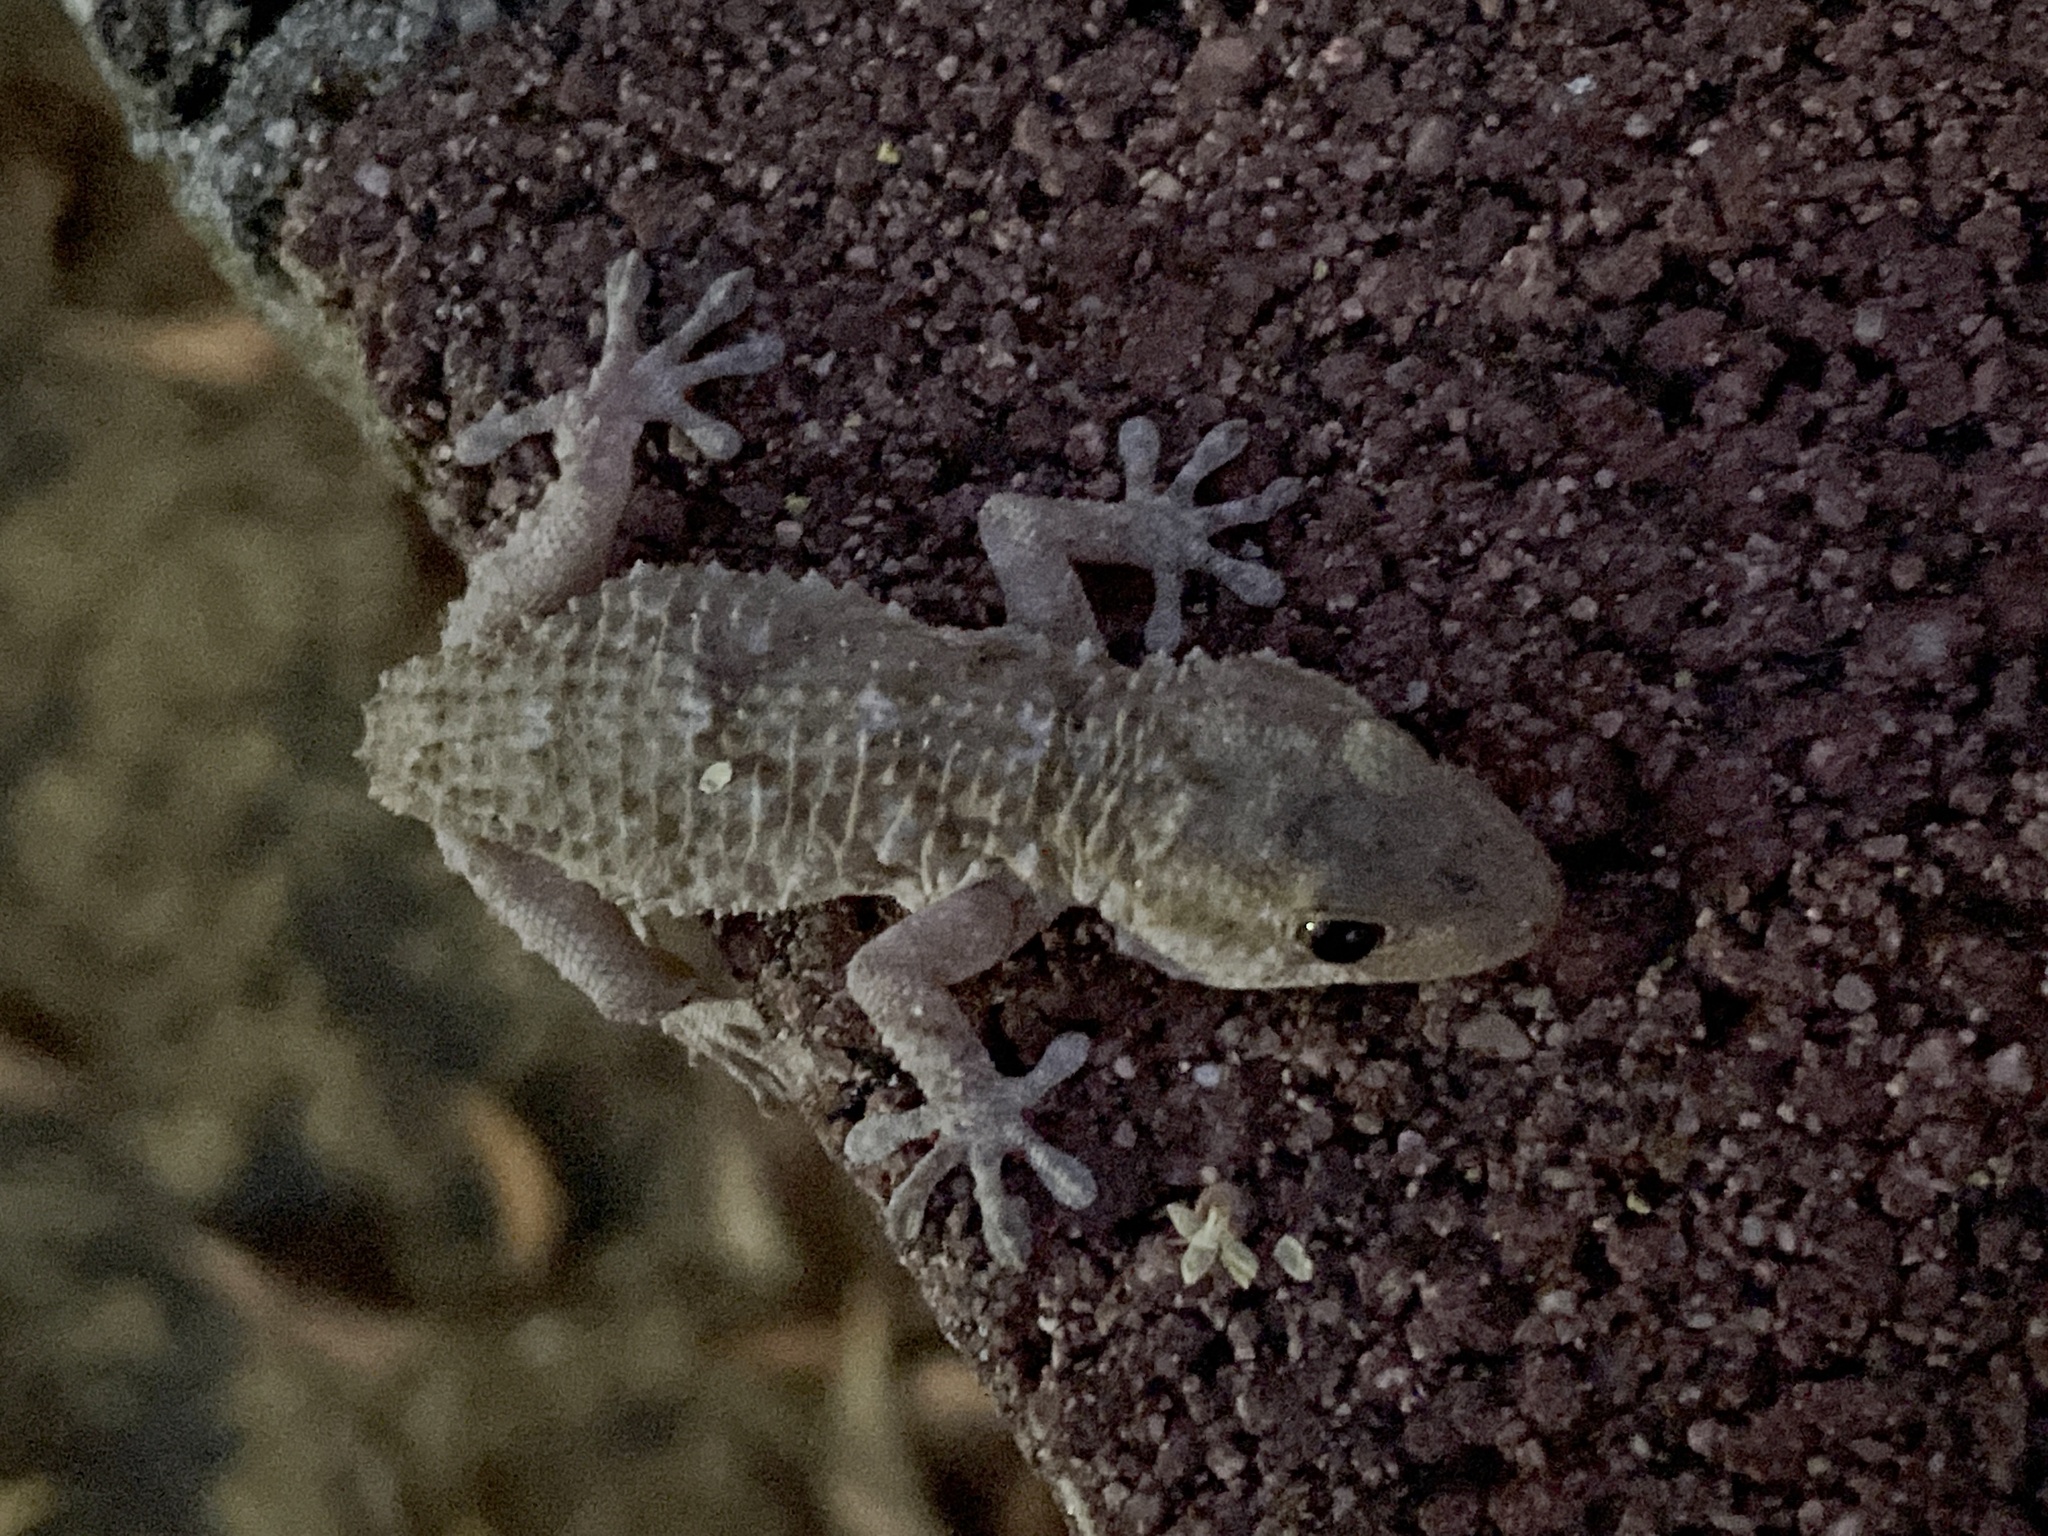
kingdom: Animalia
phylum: Chordata
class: Squamata
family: Phyllodactylidae
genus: Tarentola
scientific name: Tarentola mauritanica
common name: Moorish gecko
